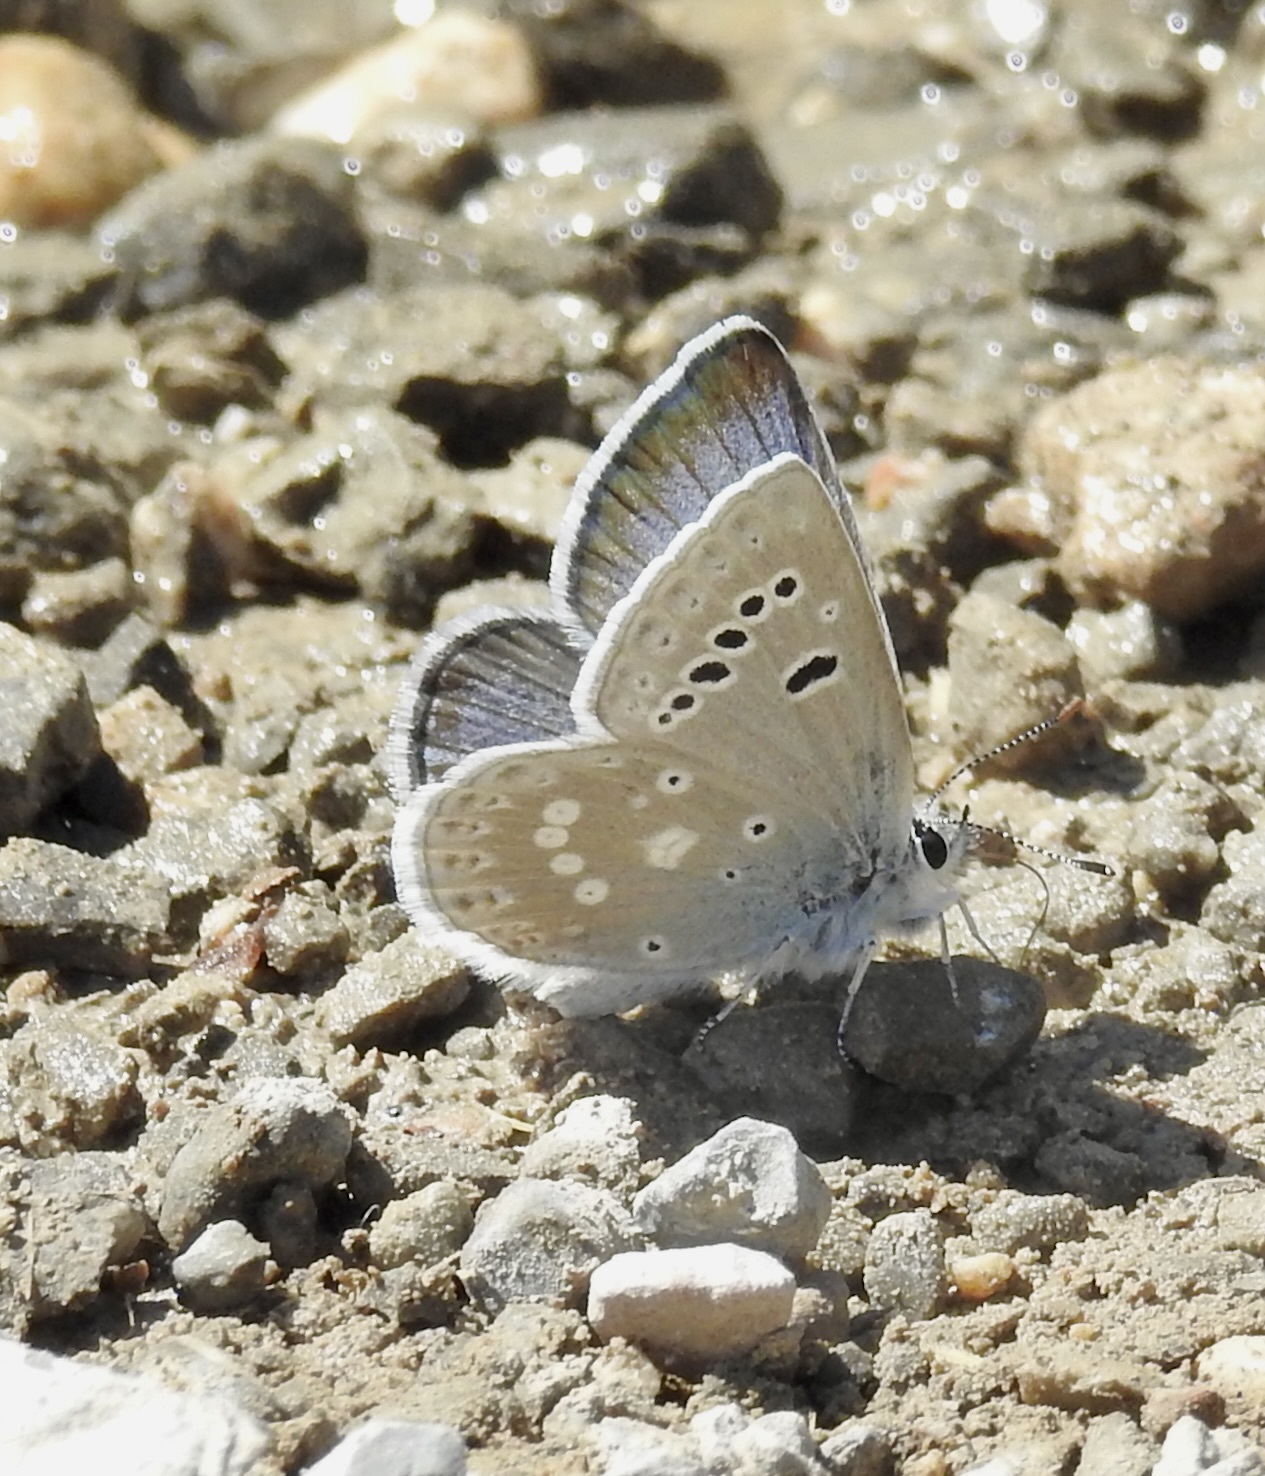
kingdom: Animalia
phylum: Arthropoda
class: Insecta
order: Lepidoptera
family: Lycaenidae
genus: Icaricia
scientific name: Icaricia icarioides
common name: Boisduval's blue
